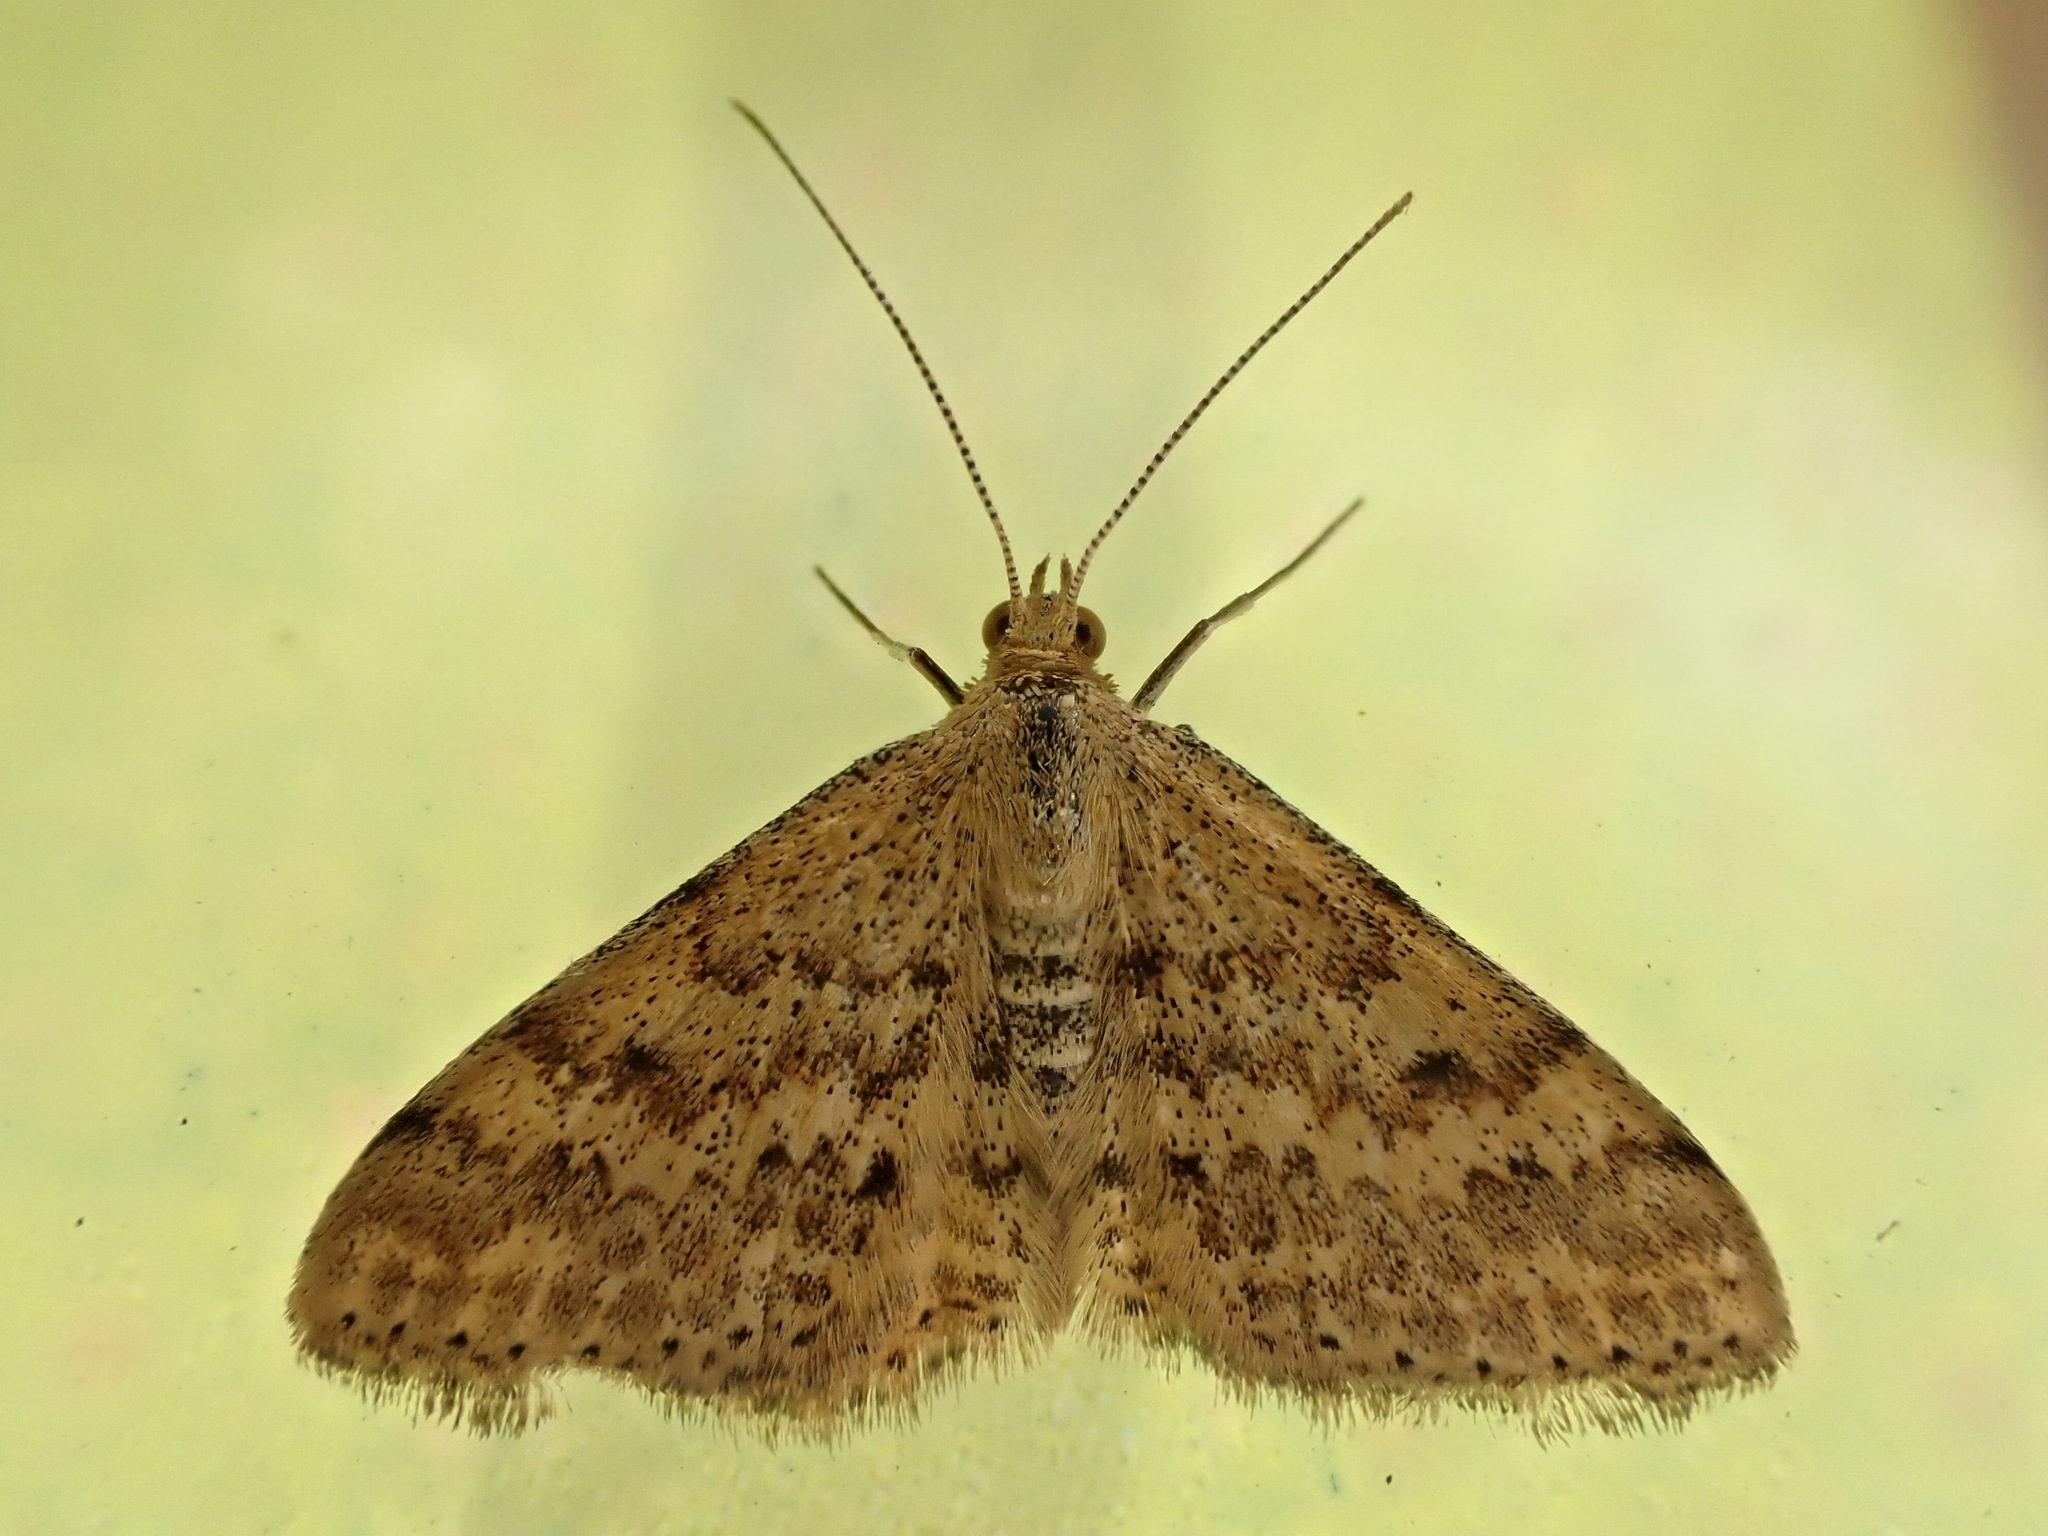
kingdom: Animalia
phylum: Arthropoda
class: Insecta
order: Lepidoptera
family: Geometridae
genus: Scopula
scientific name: Scopula rubraria
